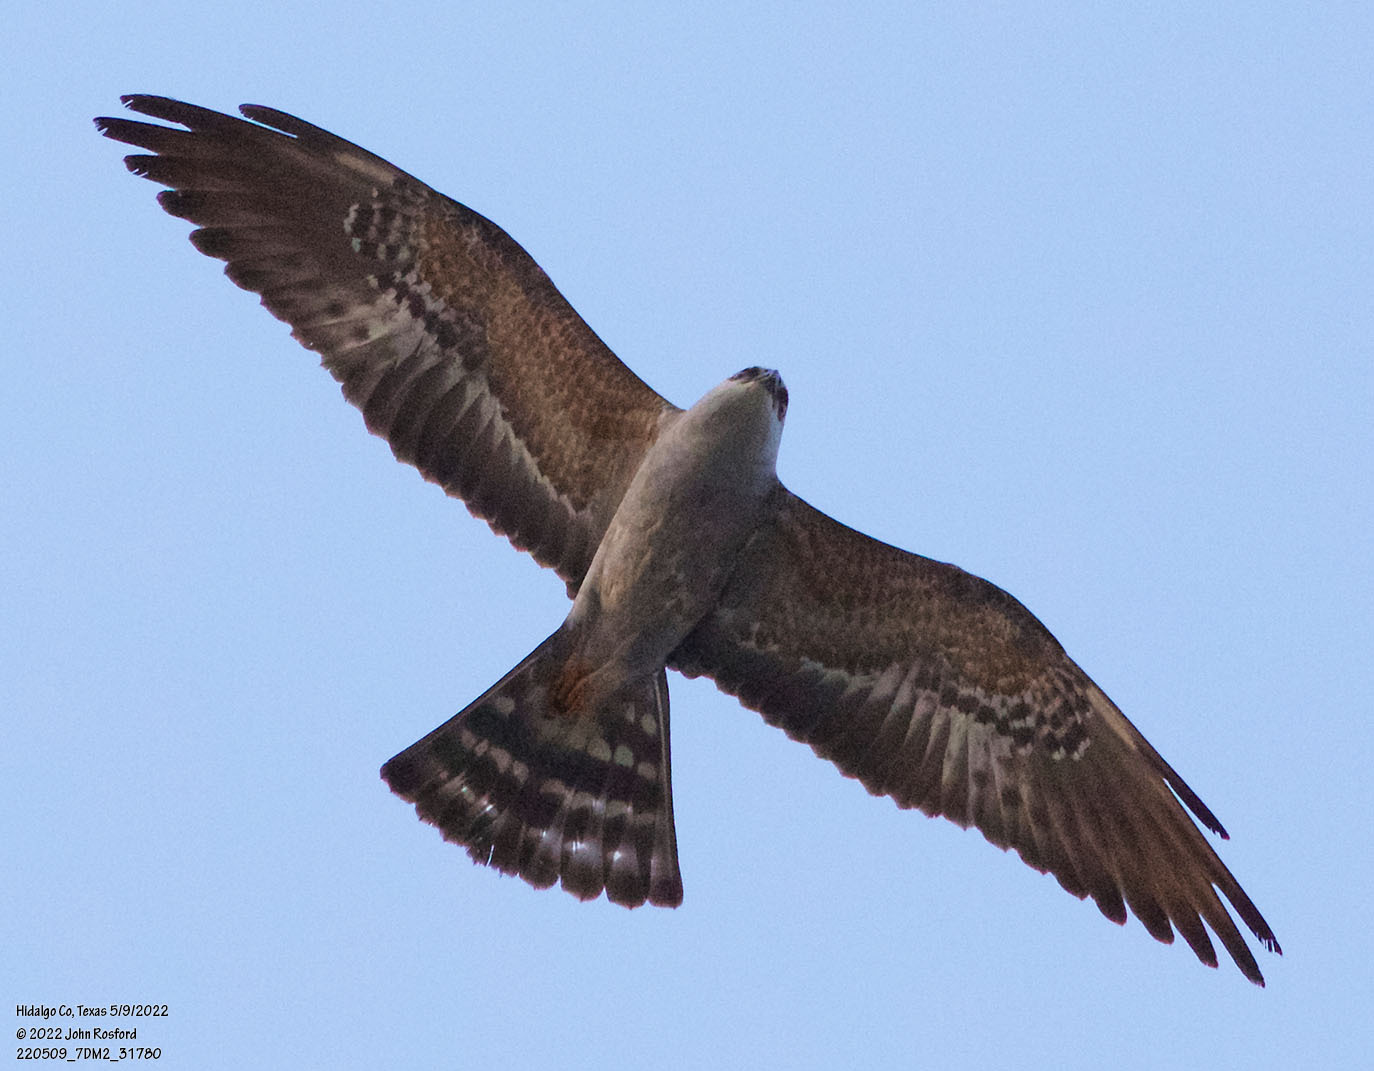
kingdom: Animalia
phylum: Chordata
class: Aves
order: Accipitriformes
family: Accipitridae
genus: Ictinia
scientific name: Ictinia mississippiensis
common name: Mississippi kite
